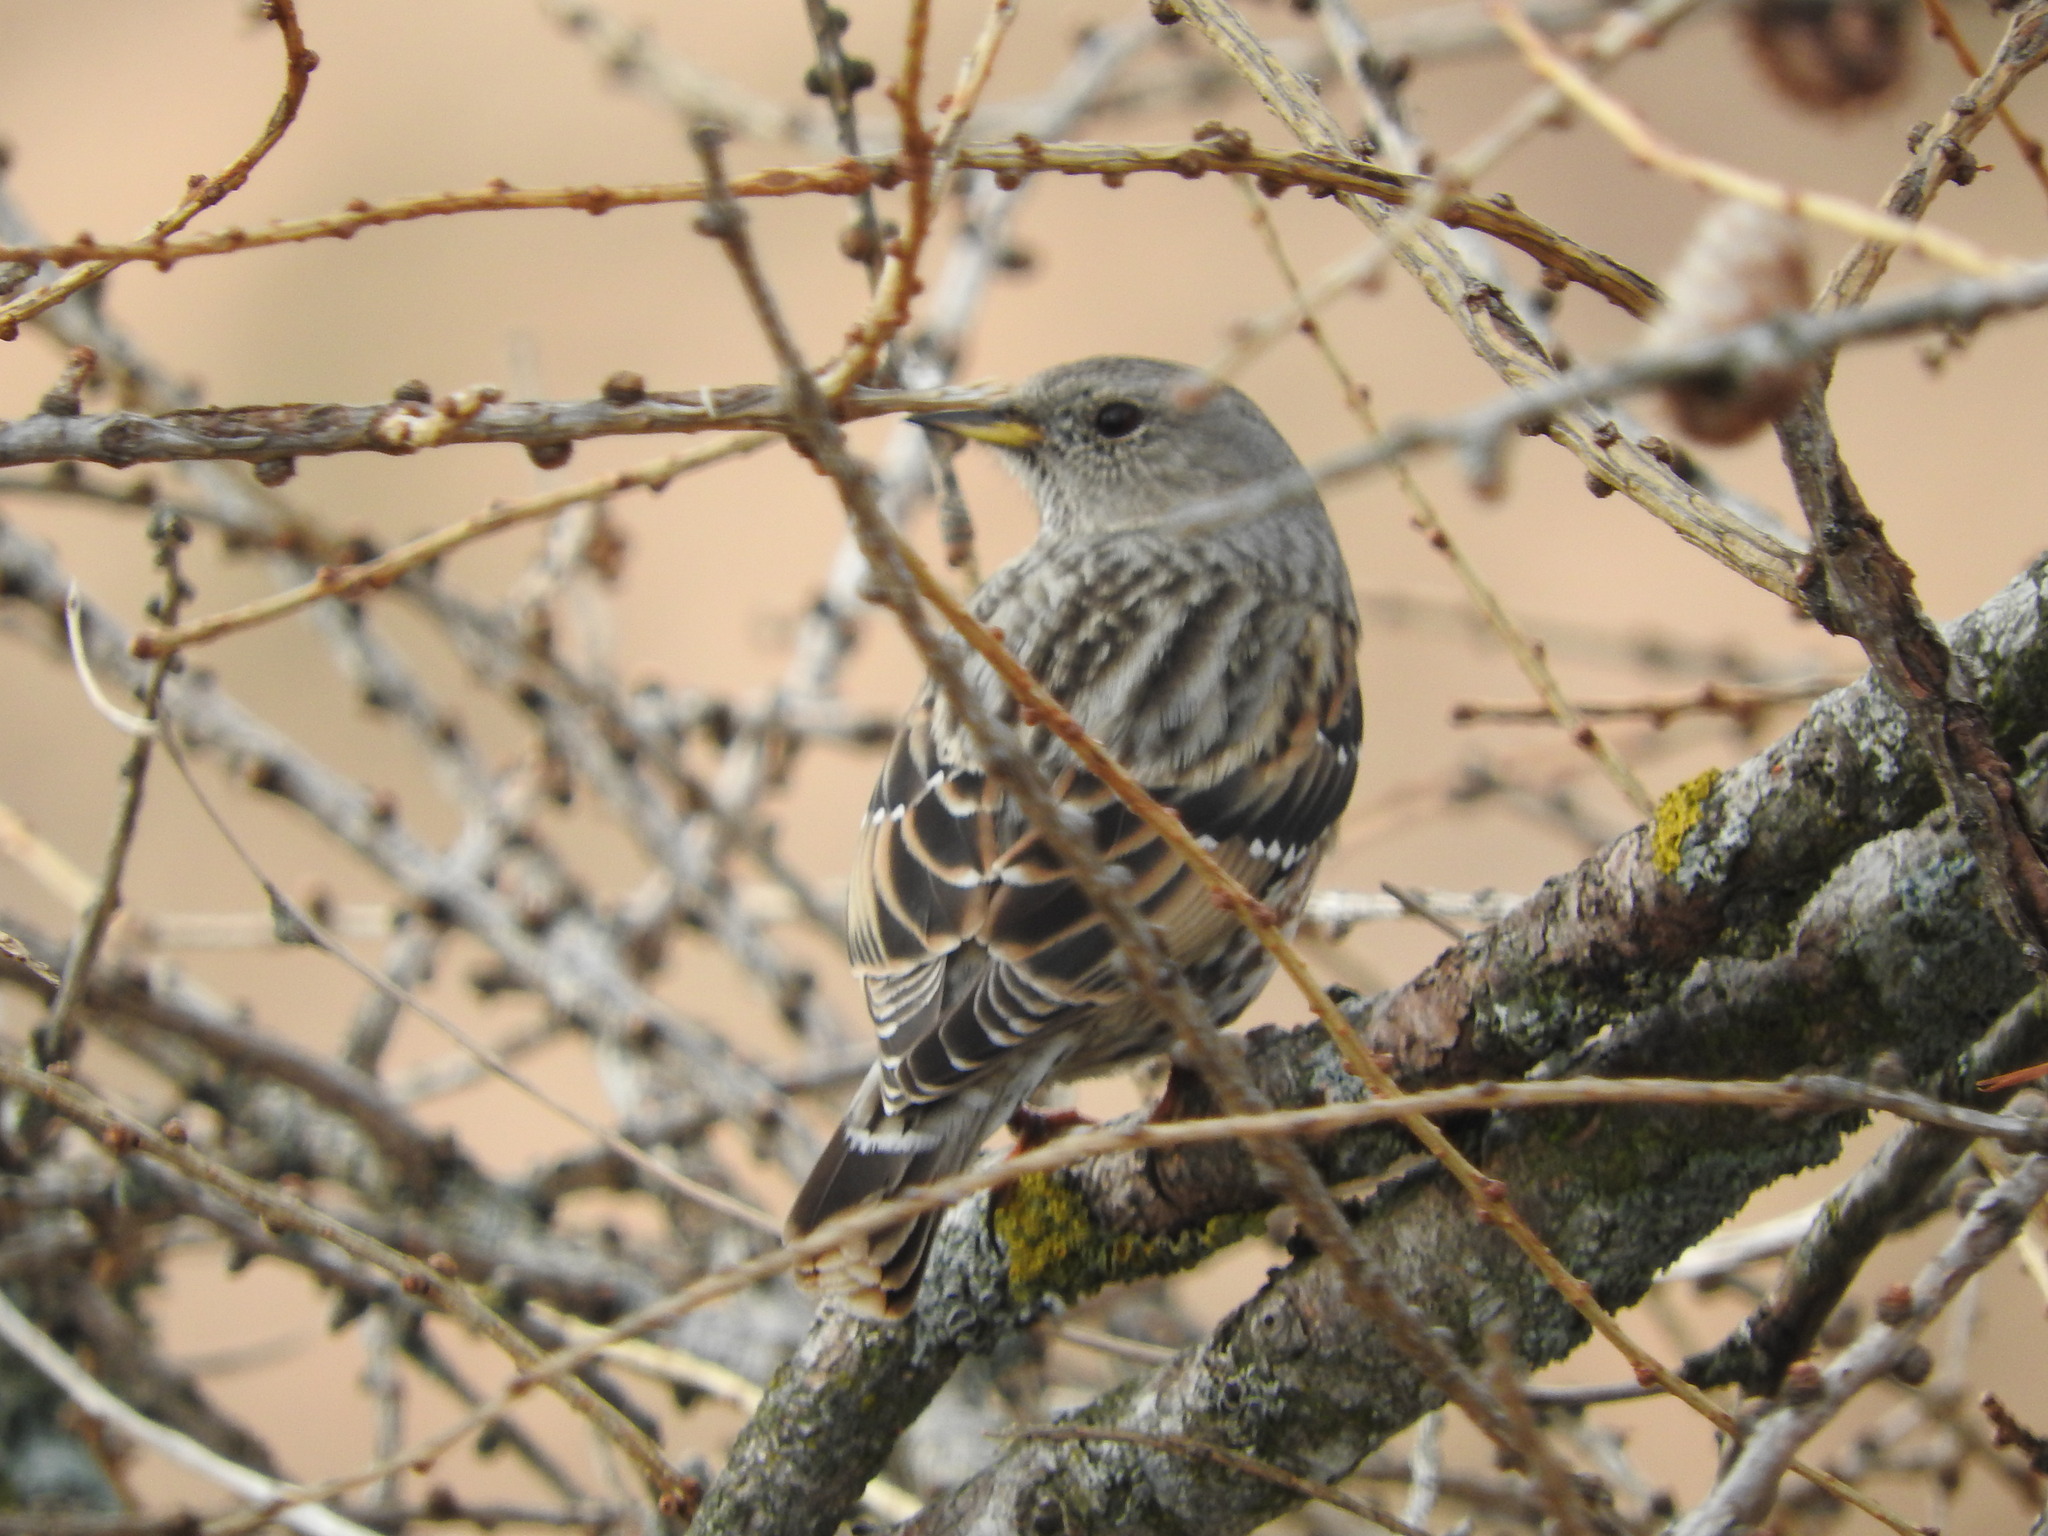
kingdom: Animalia
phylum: Chordata
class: Aves
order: Passeriformes
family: Prunellidae
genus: Prunella
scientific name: Prunella collaris
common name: Alpine accentor
